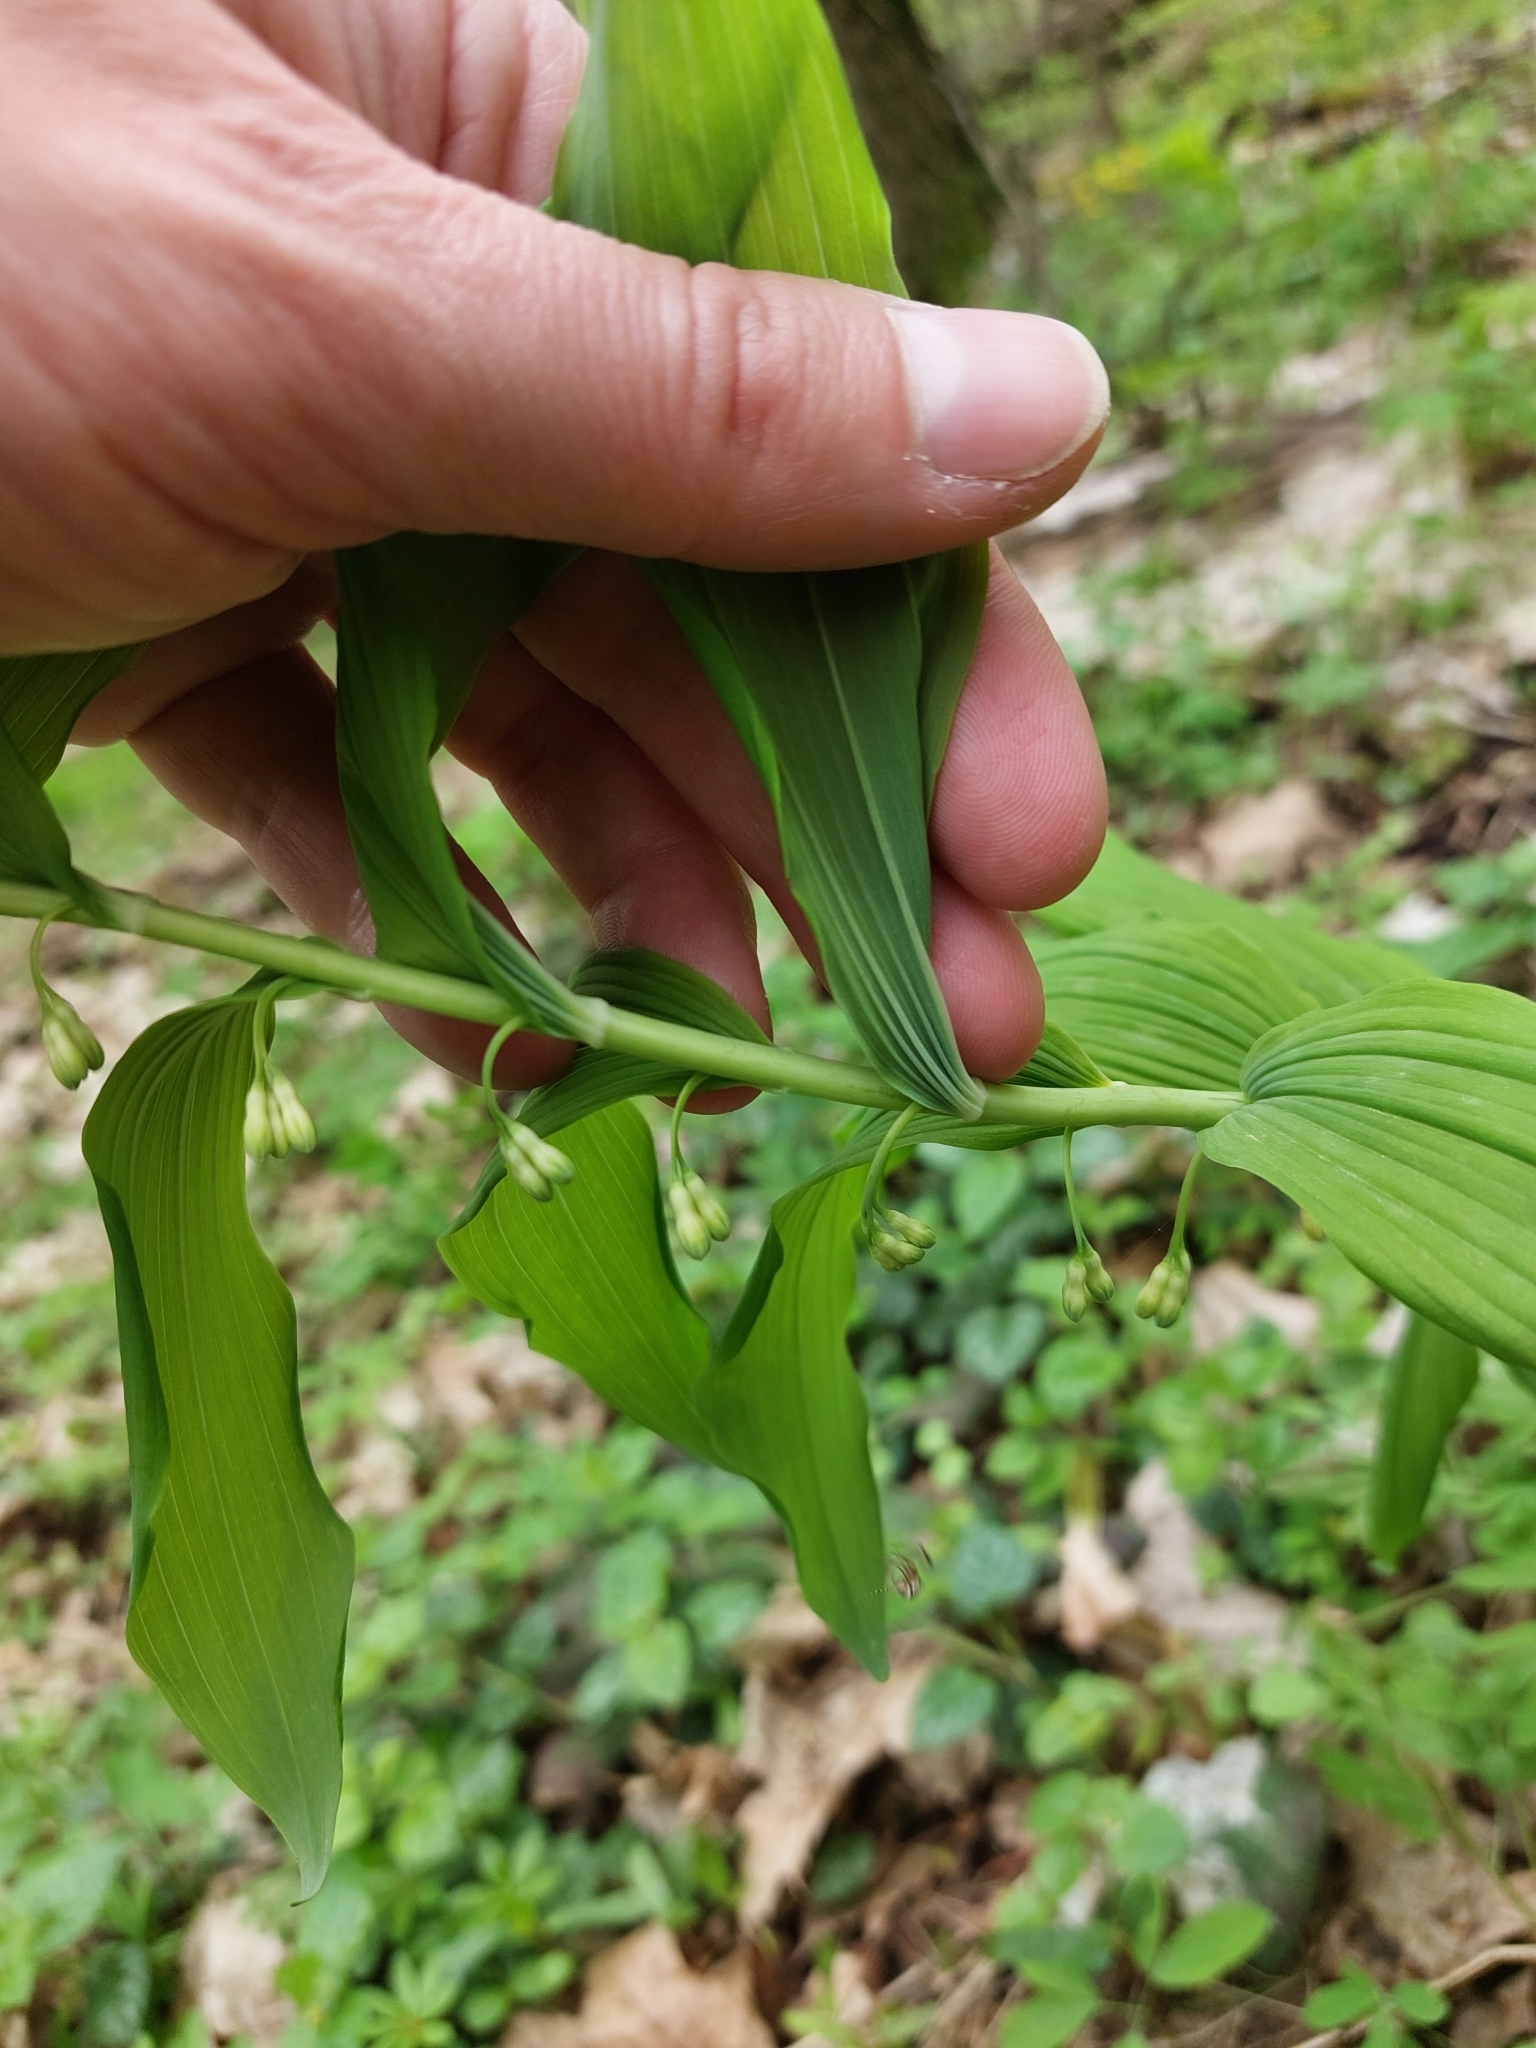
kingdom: Plantae
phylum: Tracheophyta
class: Liliopsida
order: Asparagales
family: Asparagaceae
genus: Polygonatum
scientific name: Polygonatum multiflorum
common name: Solomon's-seal
